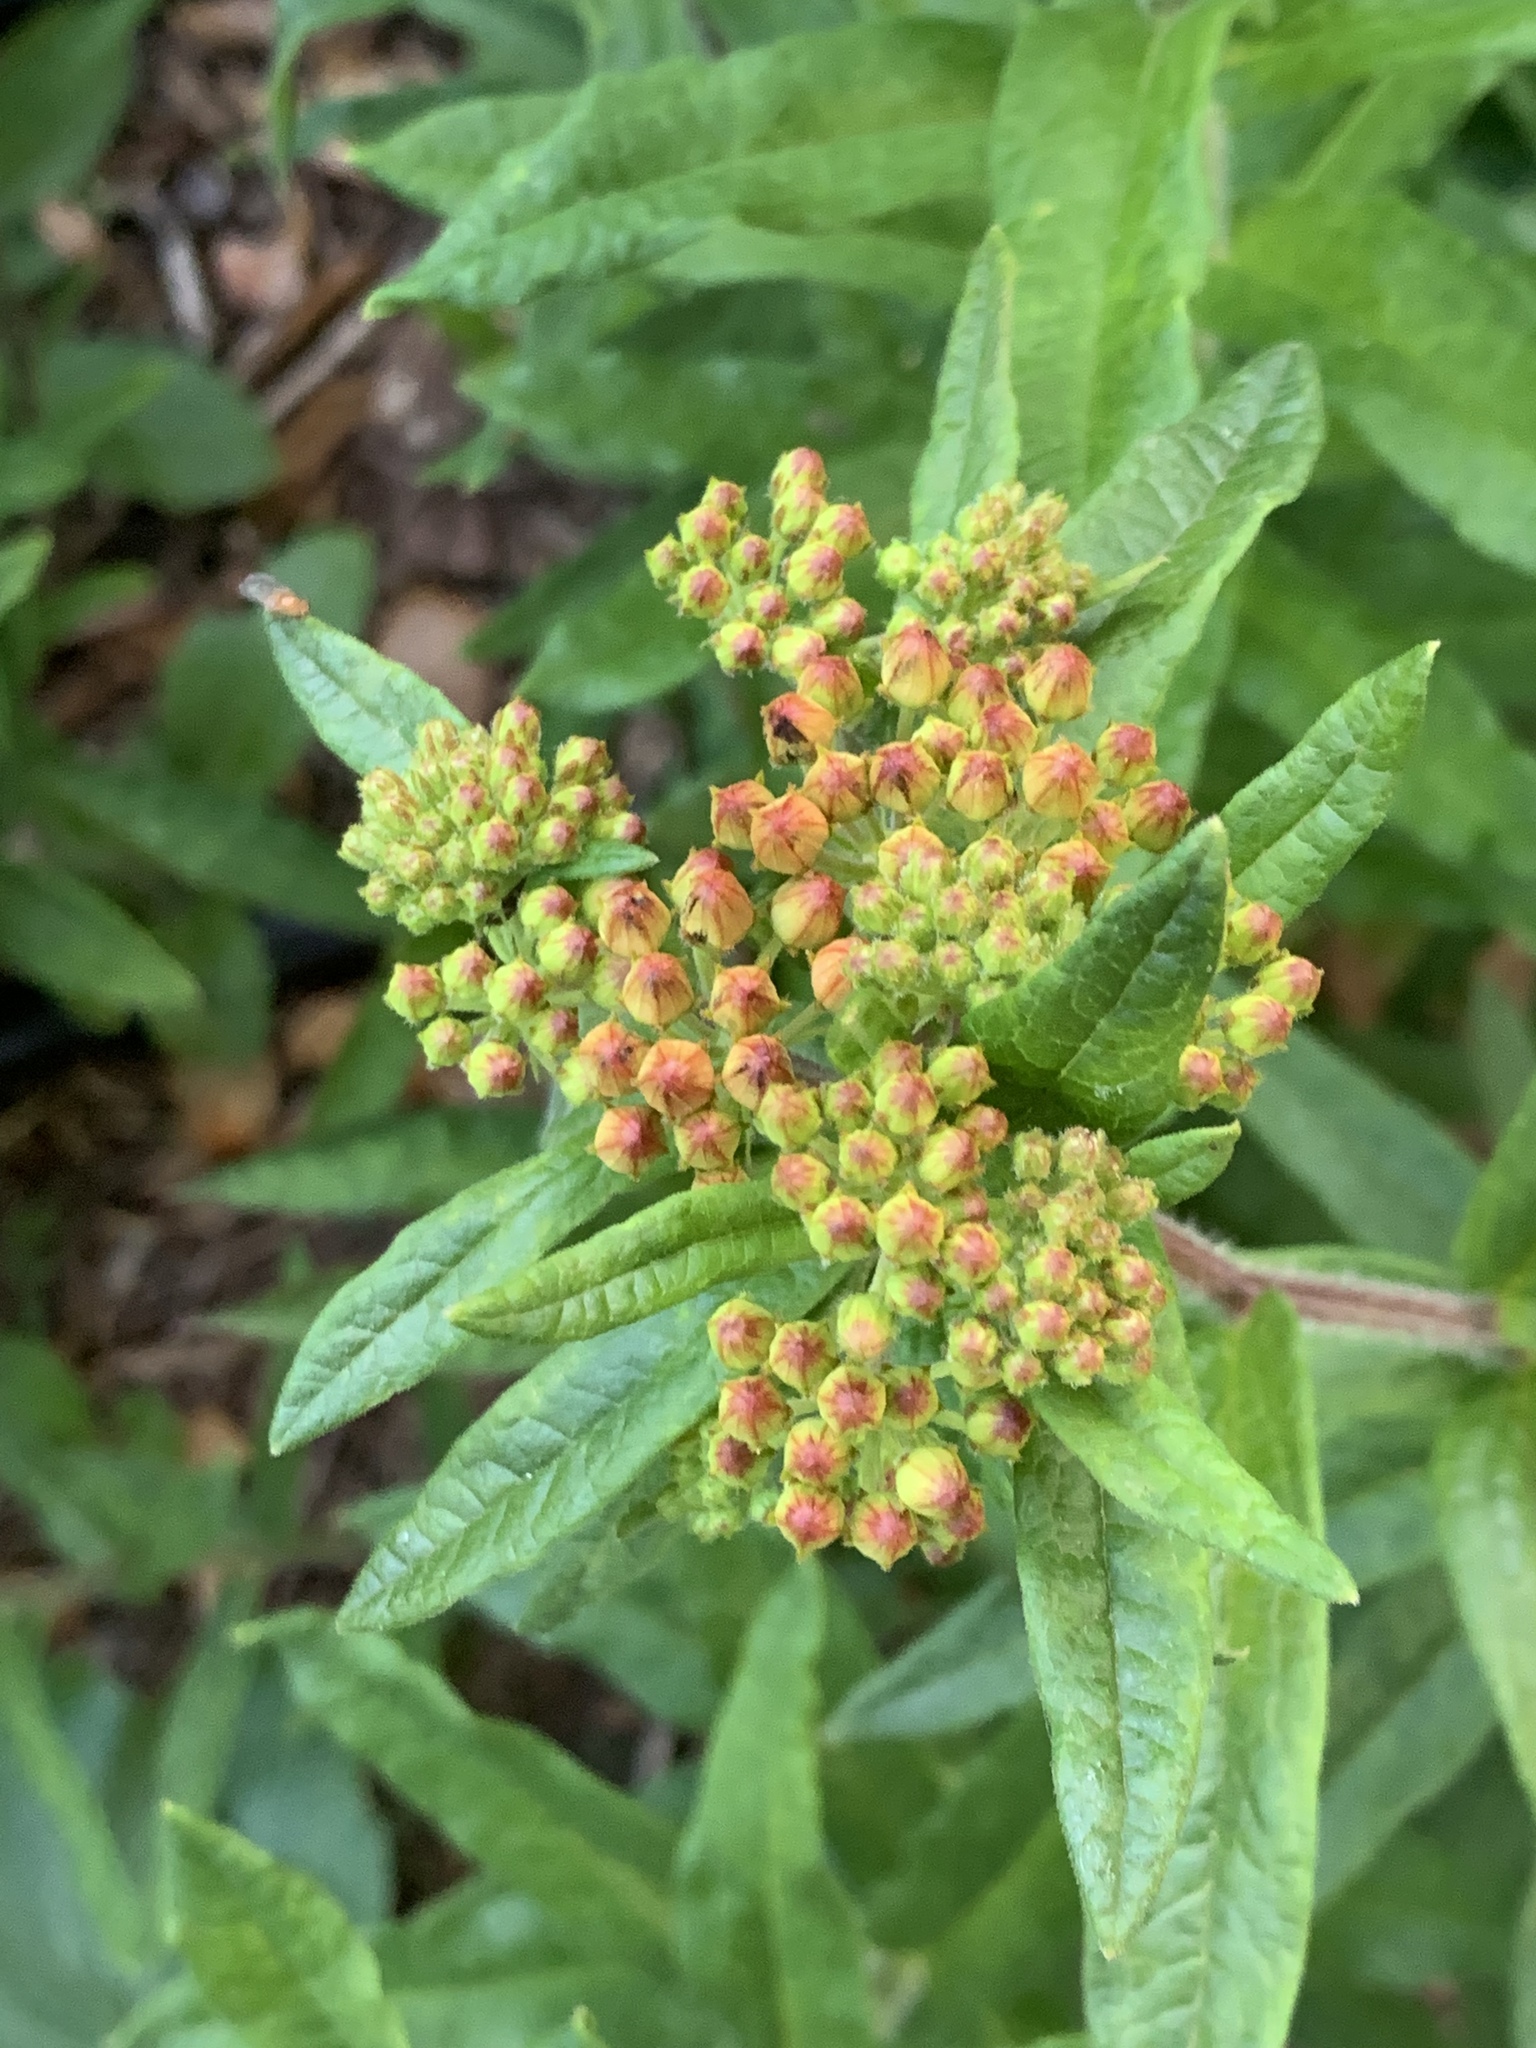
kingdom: Plantae
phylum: Tracheophyta
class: Magnoliopsida
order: Gentianales
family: Apocynaceae
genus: Asclepias
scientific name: Asclepias tuberosa
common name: Butterfly milkweed
